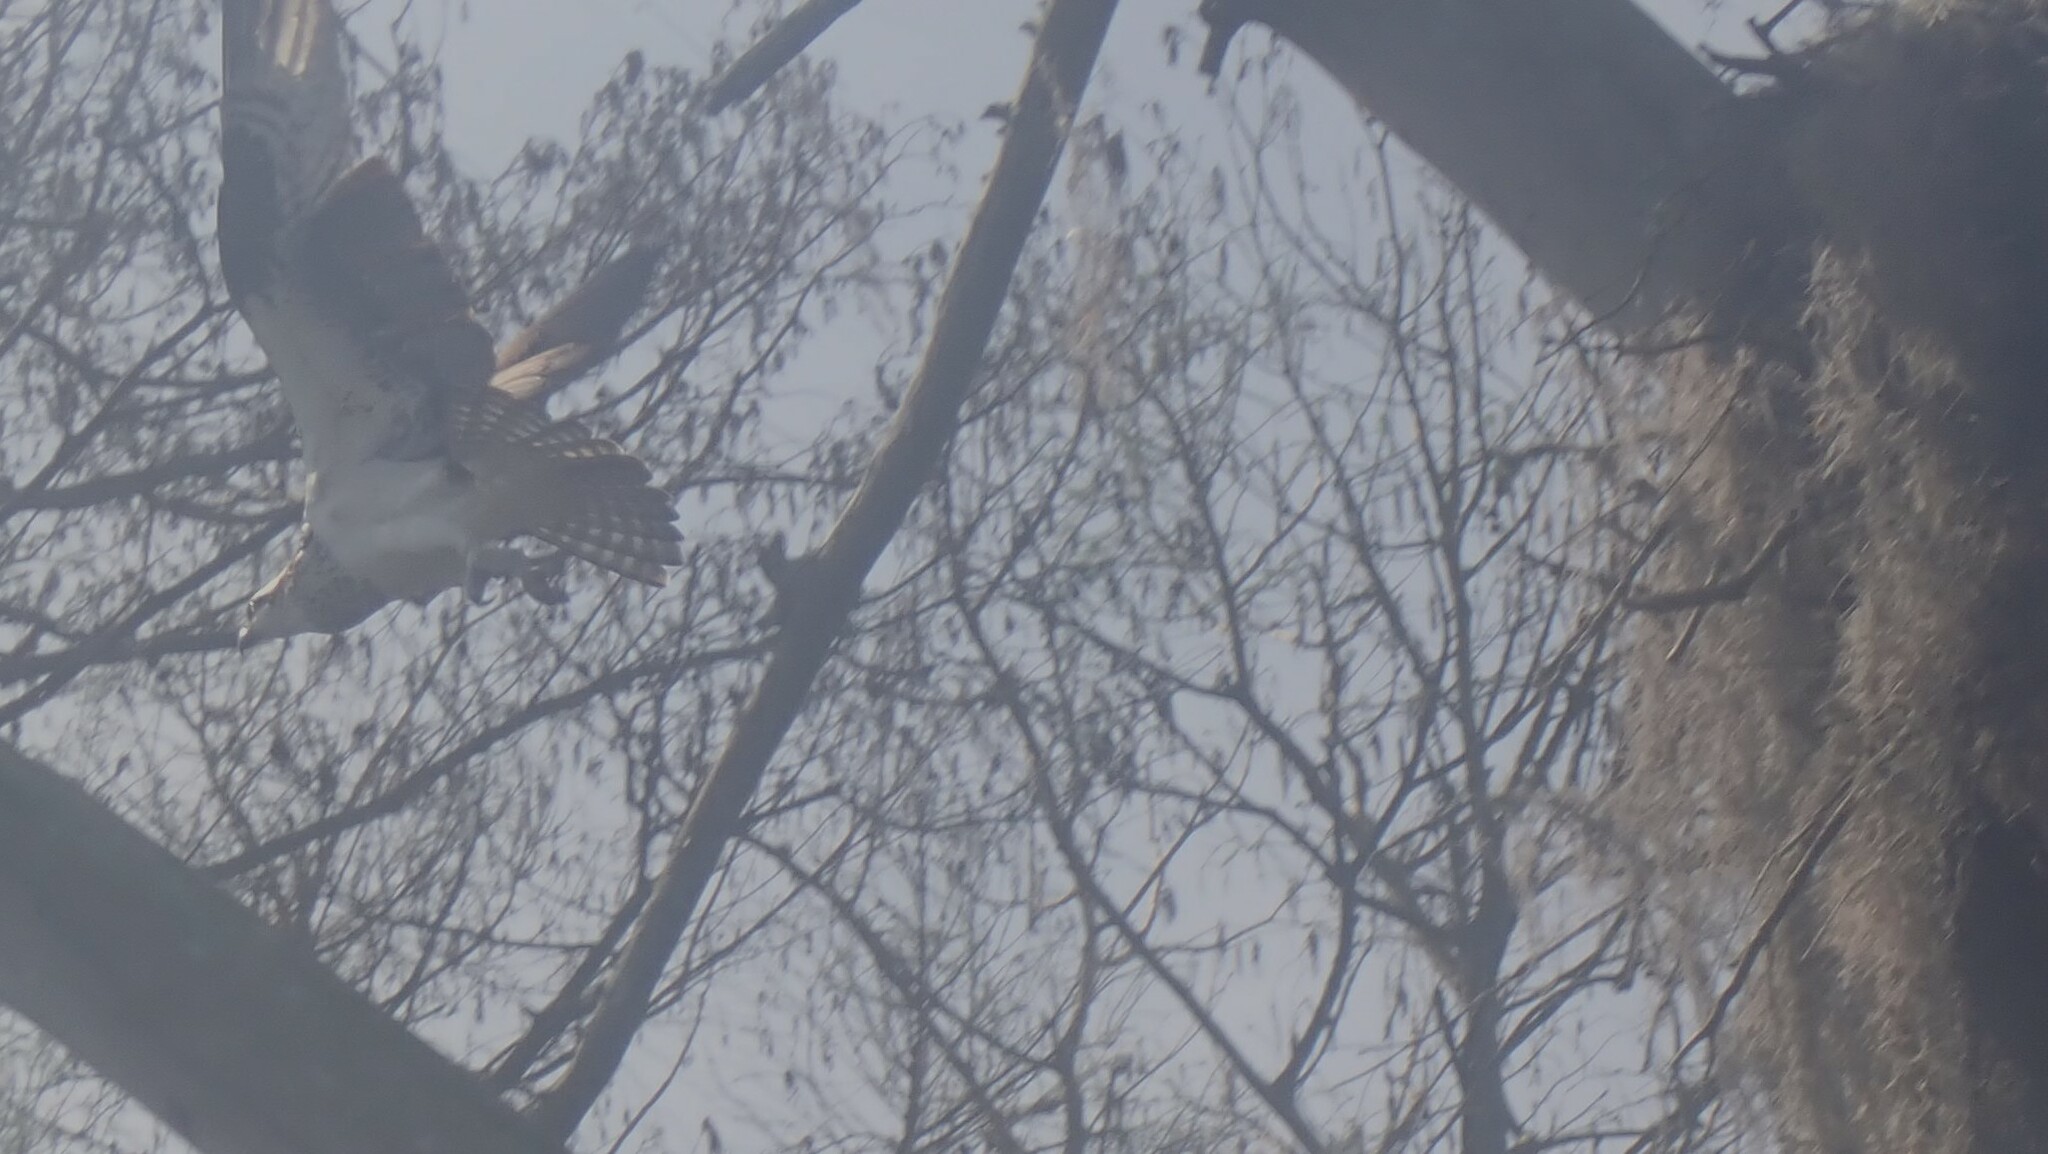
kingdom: Animalia
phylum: Chordata
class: Aves
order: Accipitriformes
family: Pandionidae
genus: Pandion
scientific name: Pandion haliaetus
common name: Osprey
